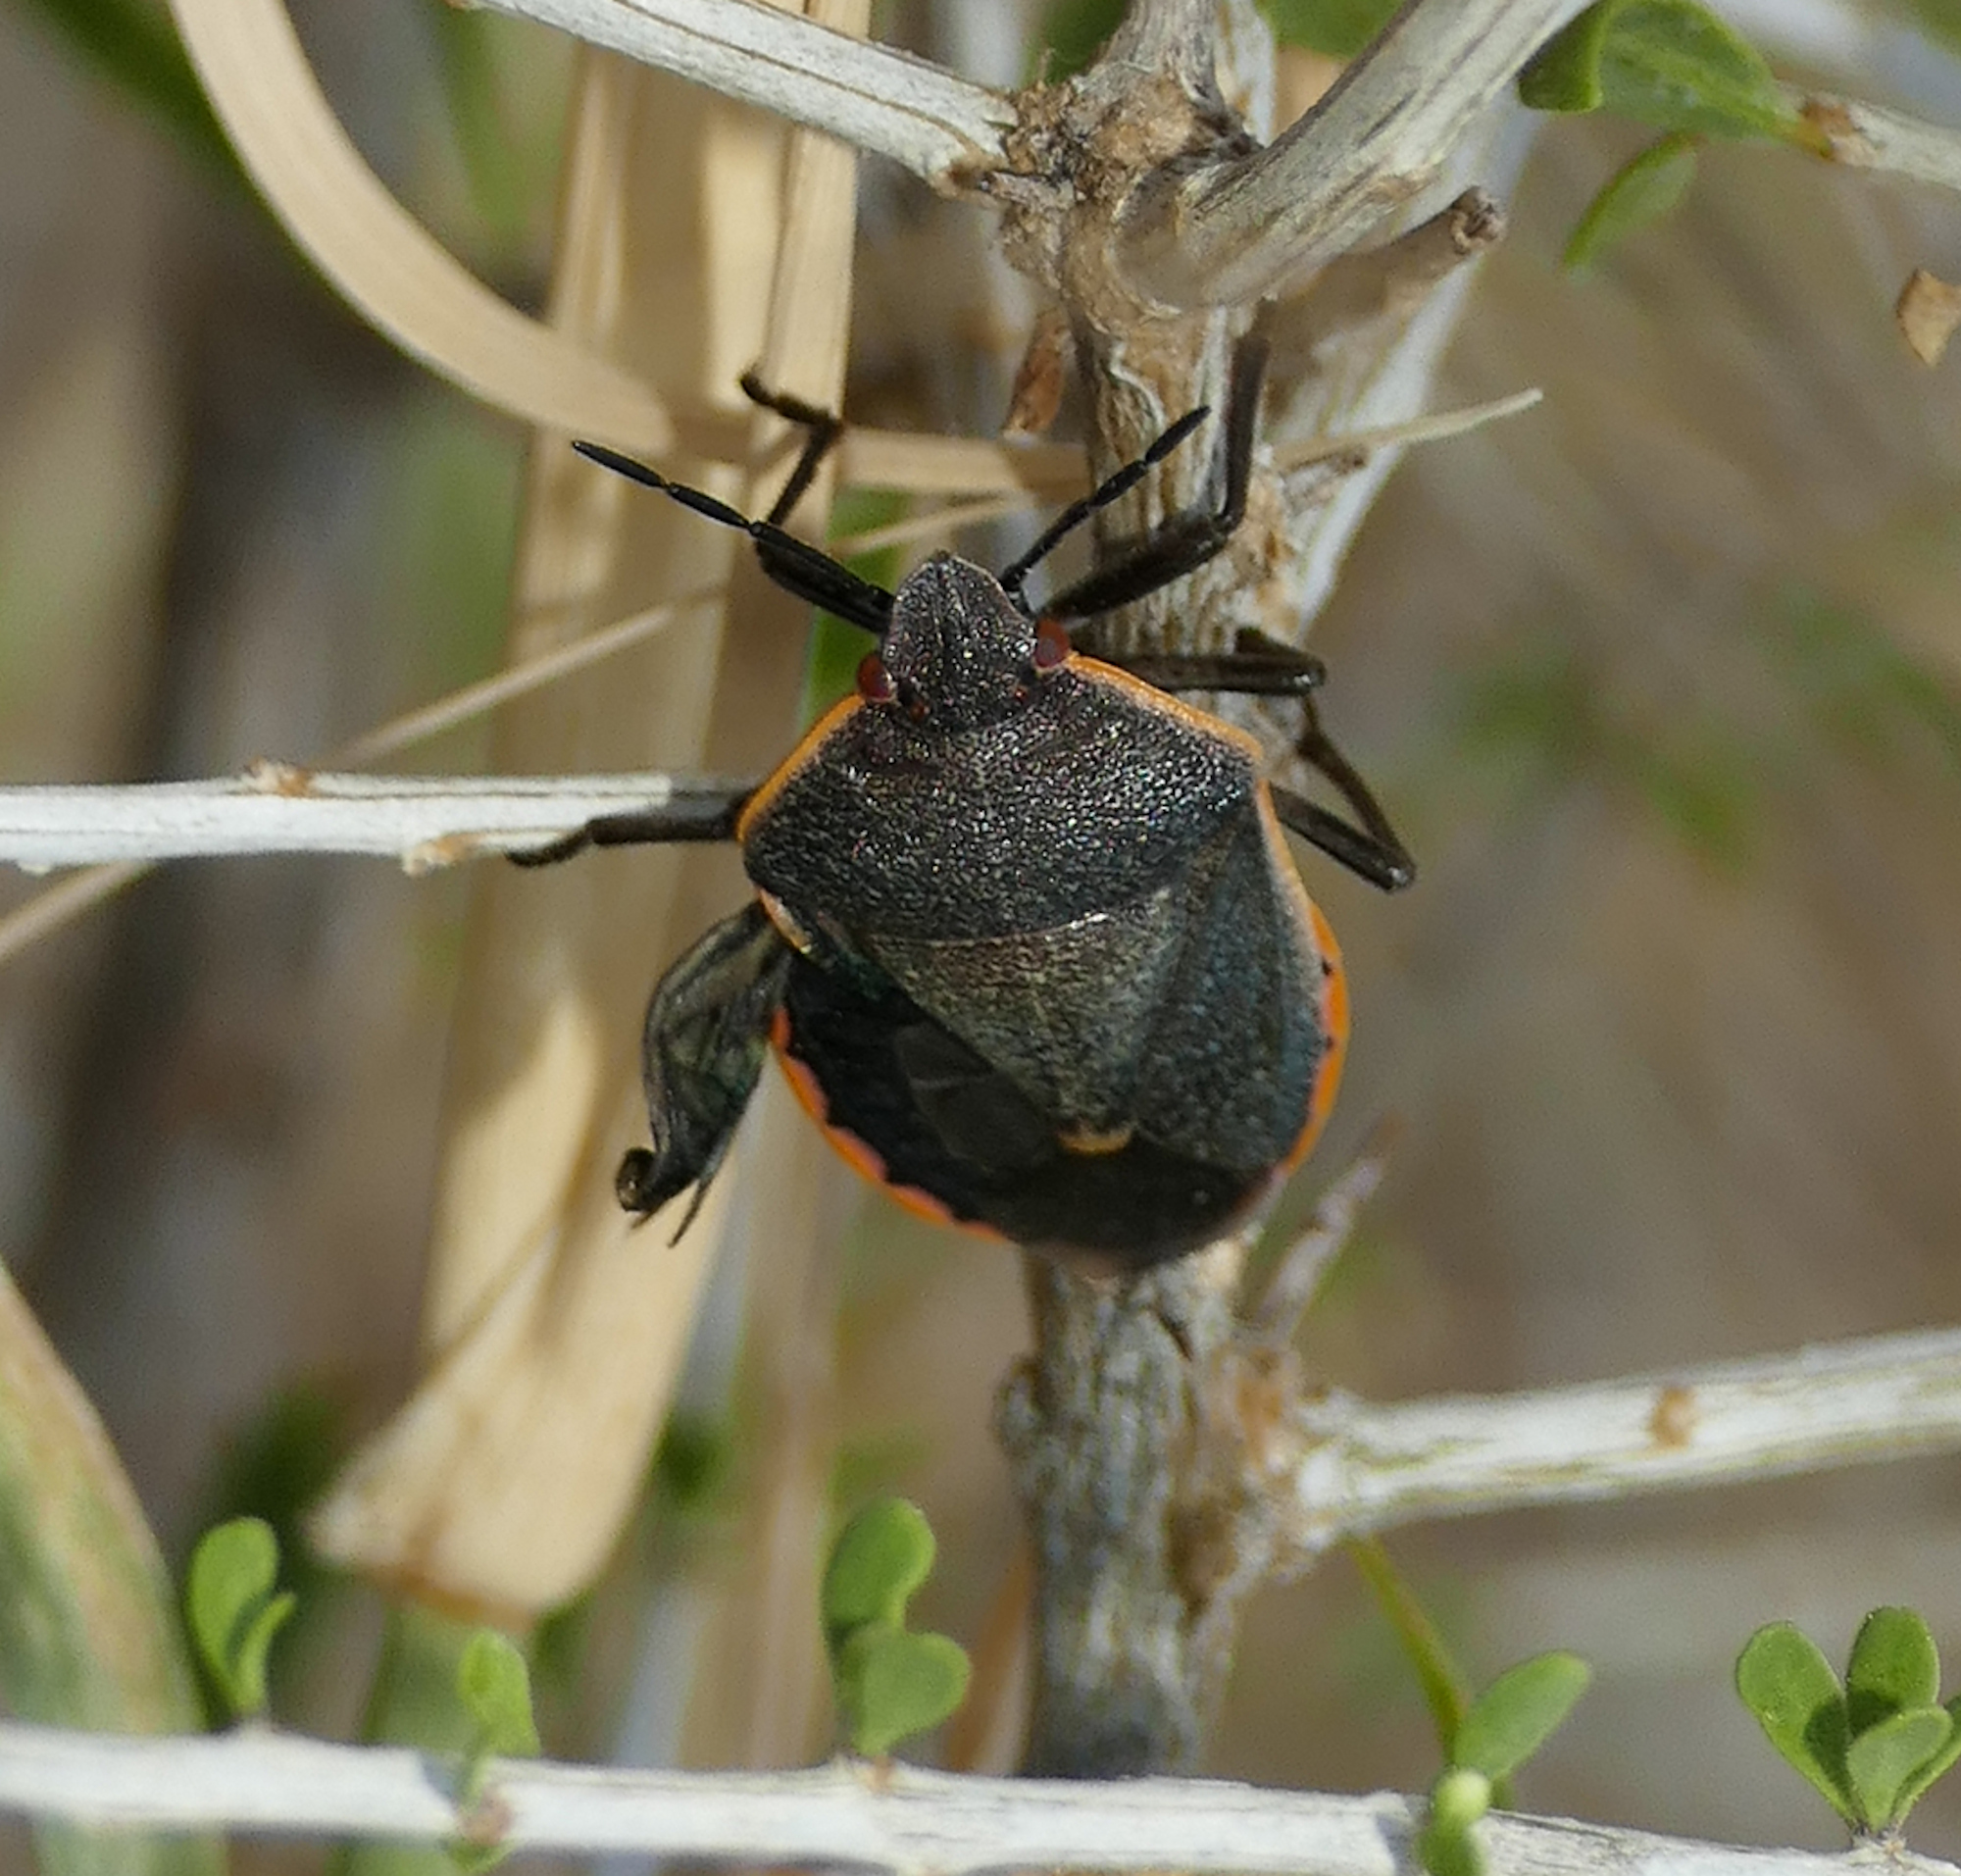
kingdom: Animalia
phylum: Arthropoda
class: Insecta
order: Hemiptera
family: Pentatomidae
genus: Chlorochroa
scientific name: Chlorochroa ligata
